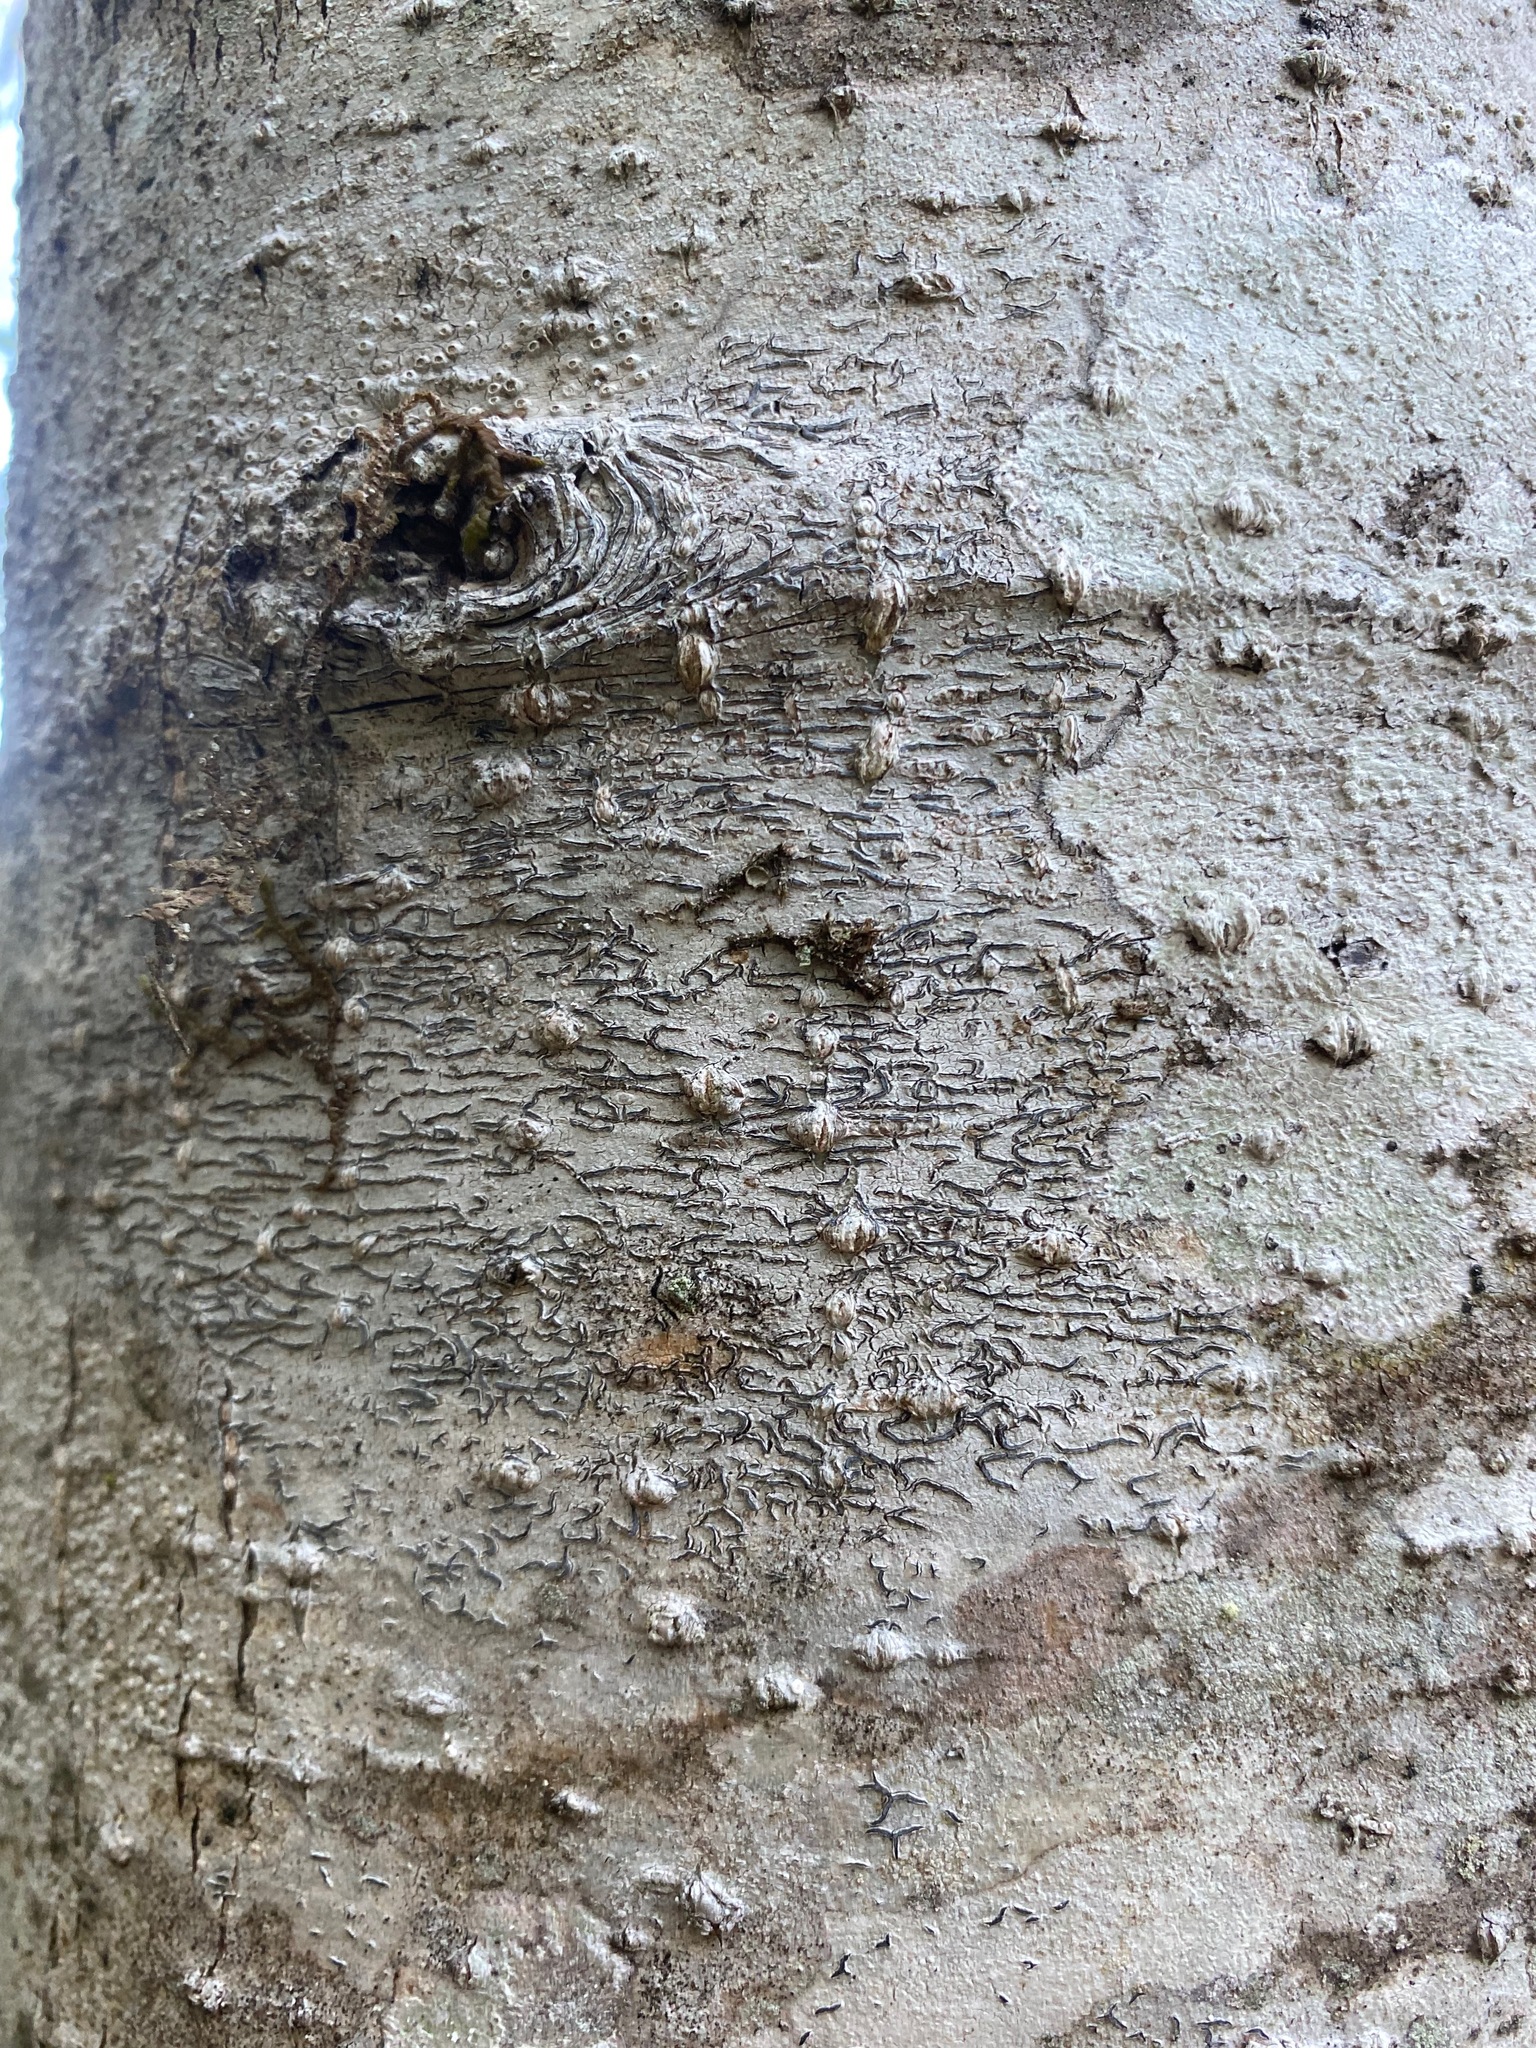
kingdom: Fungi
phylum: Ascomycota
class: Lecanoromycetes
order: Ostropales
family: Graphidaceae
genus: Graphis
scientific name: Graphis scripta
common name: Script lichen
